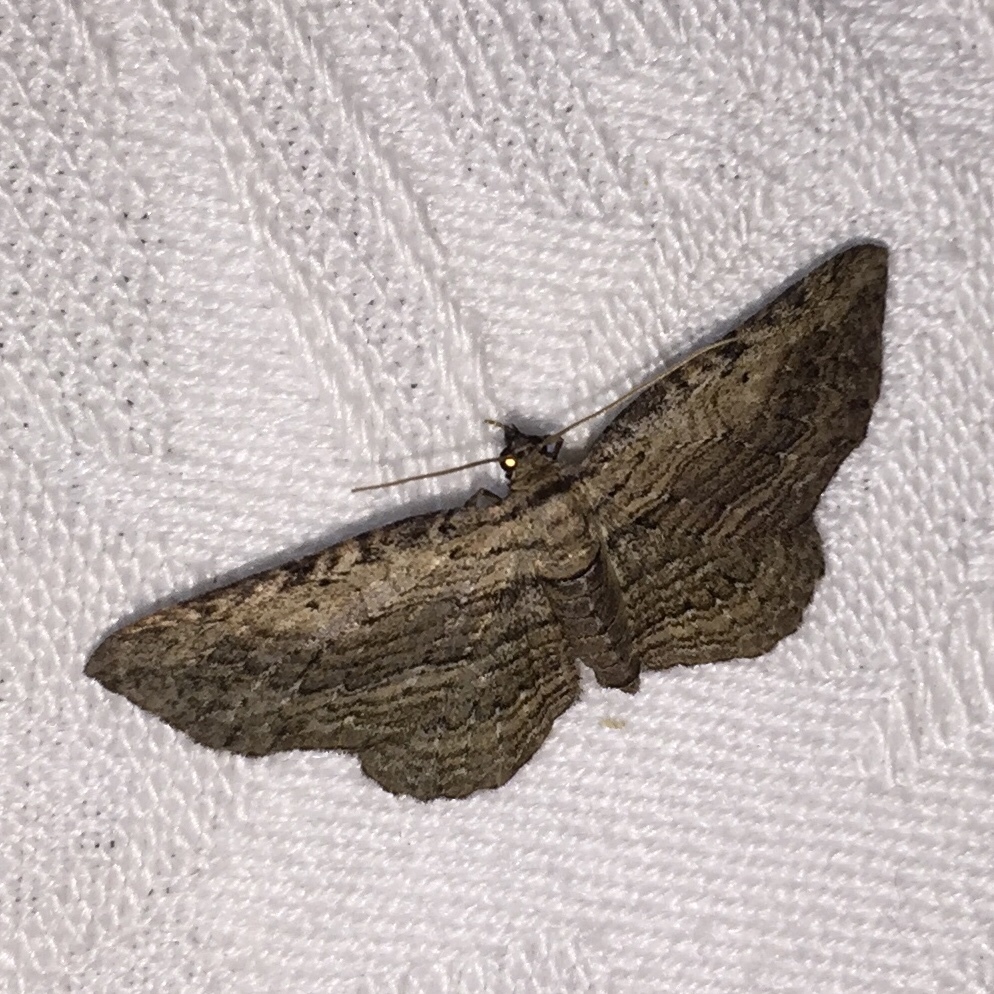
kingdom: Animalia
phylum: Arthropoda
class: Insecta
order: Lepidoptera
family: Geometridae
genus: Horisme
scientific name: Horisme intestinata
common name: Brown bark carpet
